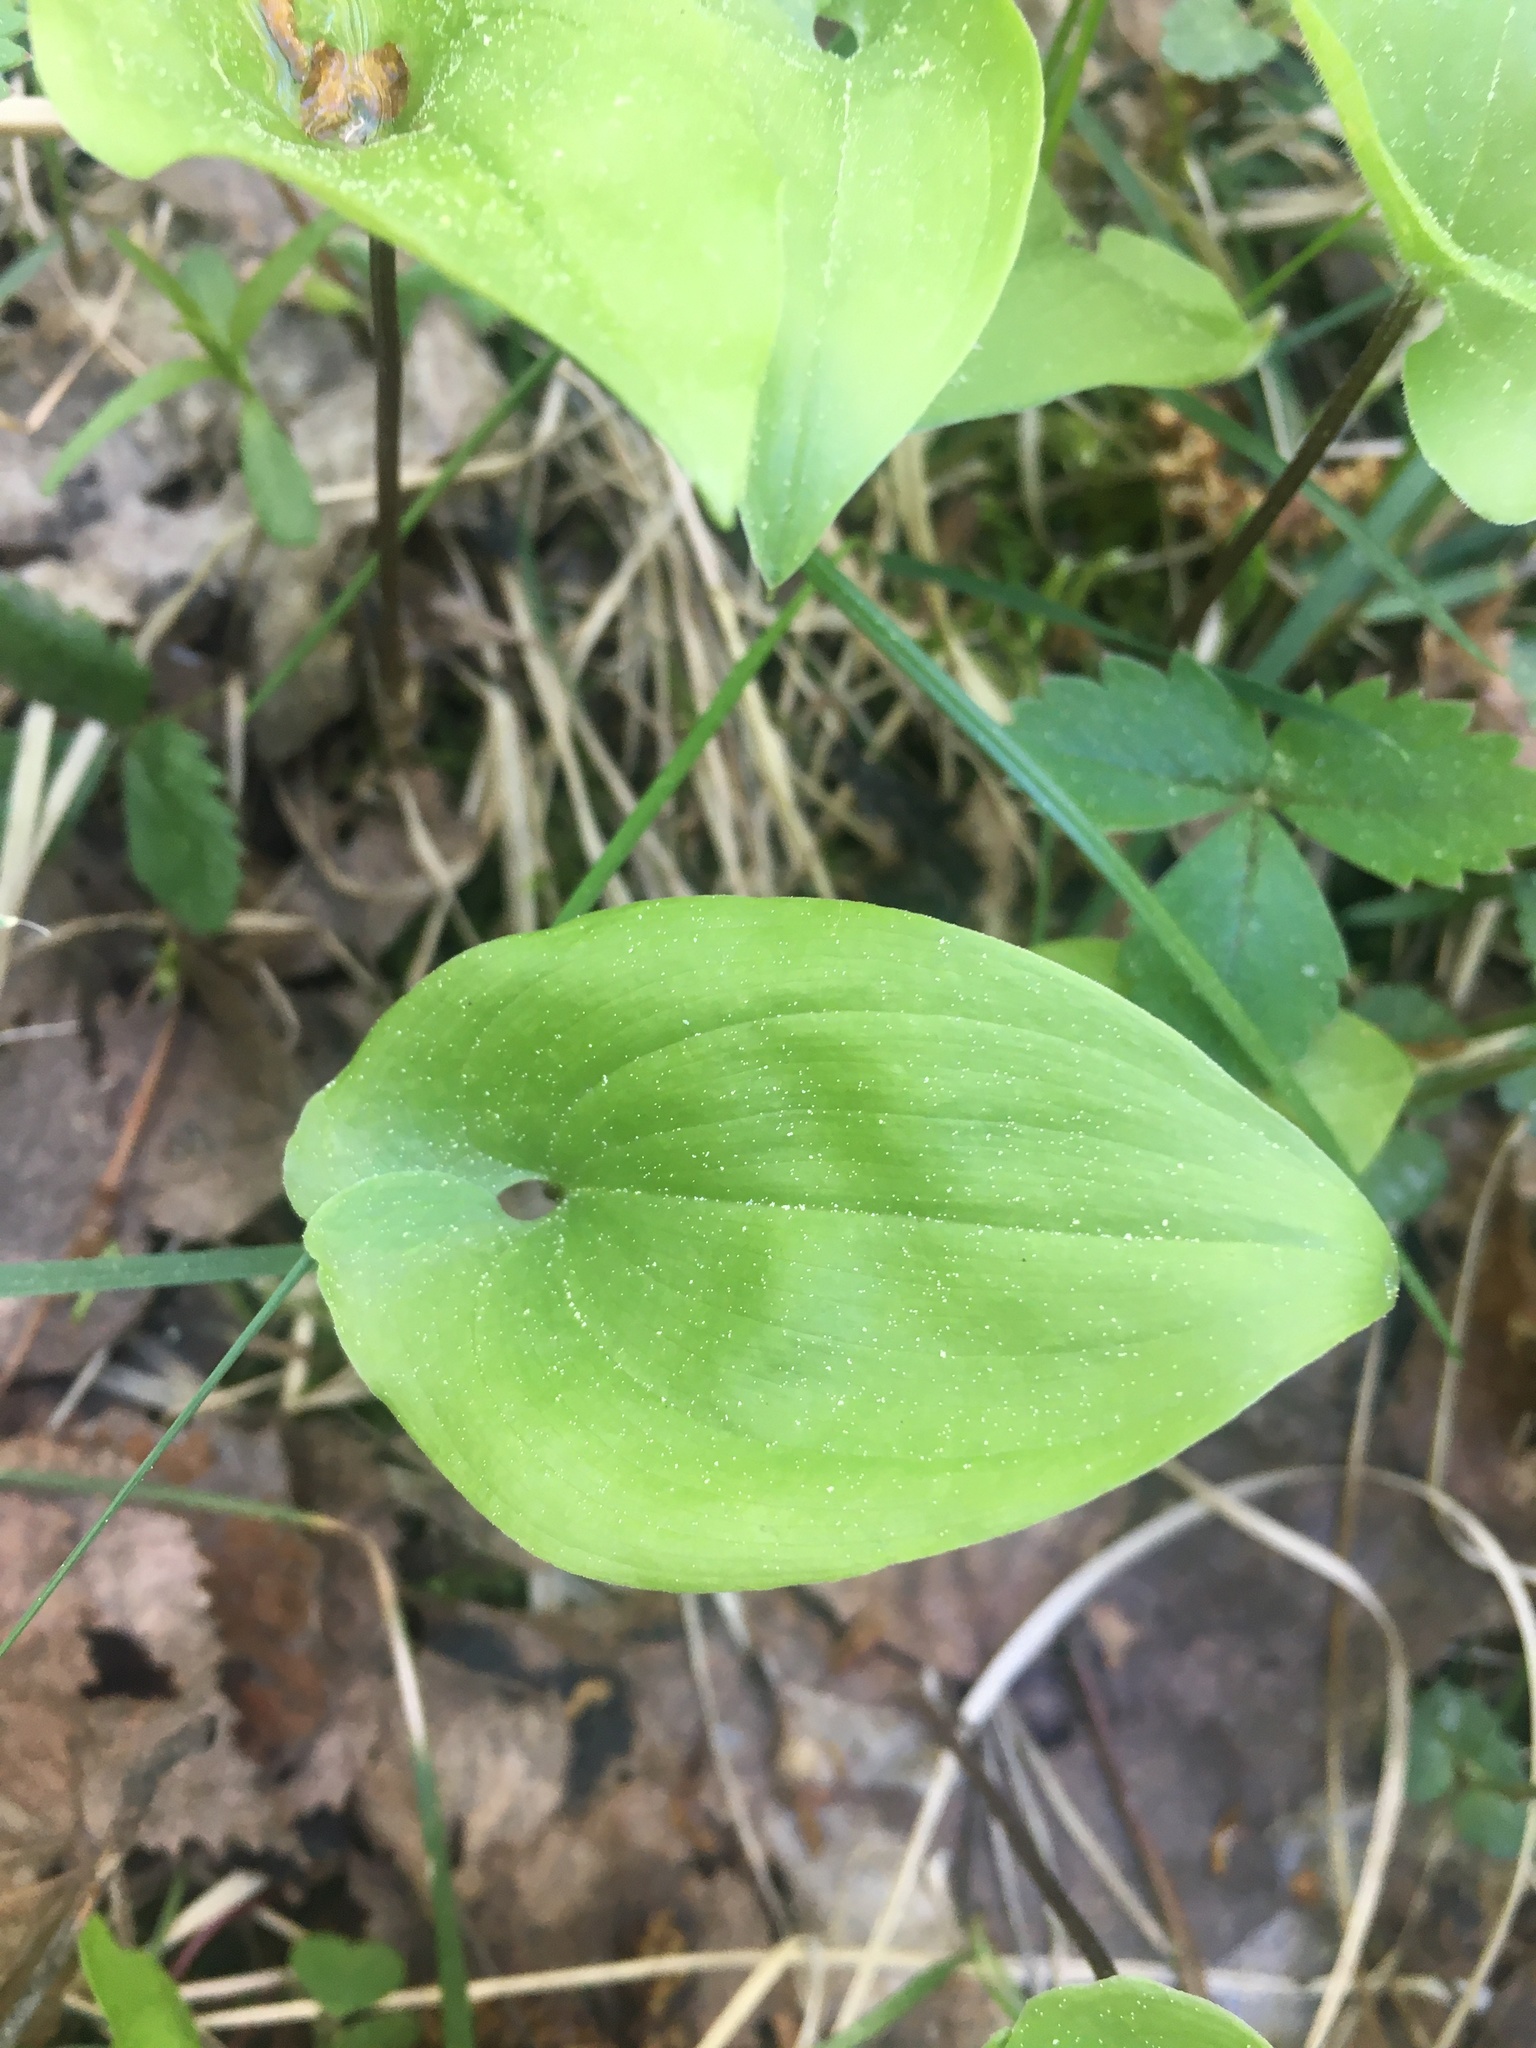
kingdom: Plantae
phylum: Tracheophyta
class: Liliopsida
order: Asparagales
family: Asparagaceae
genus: Maianthemum
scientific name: Maianthemum bifolium
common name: May lily
